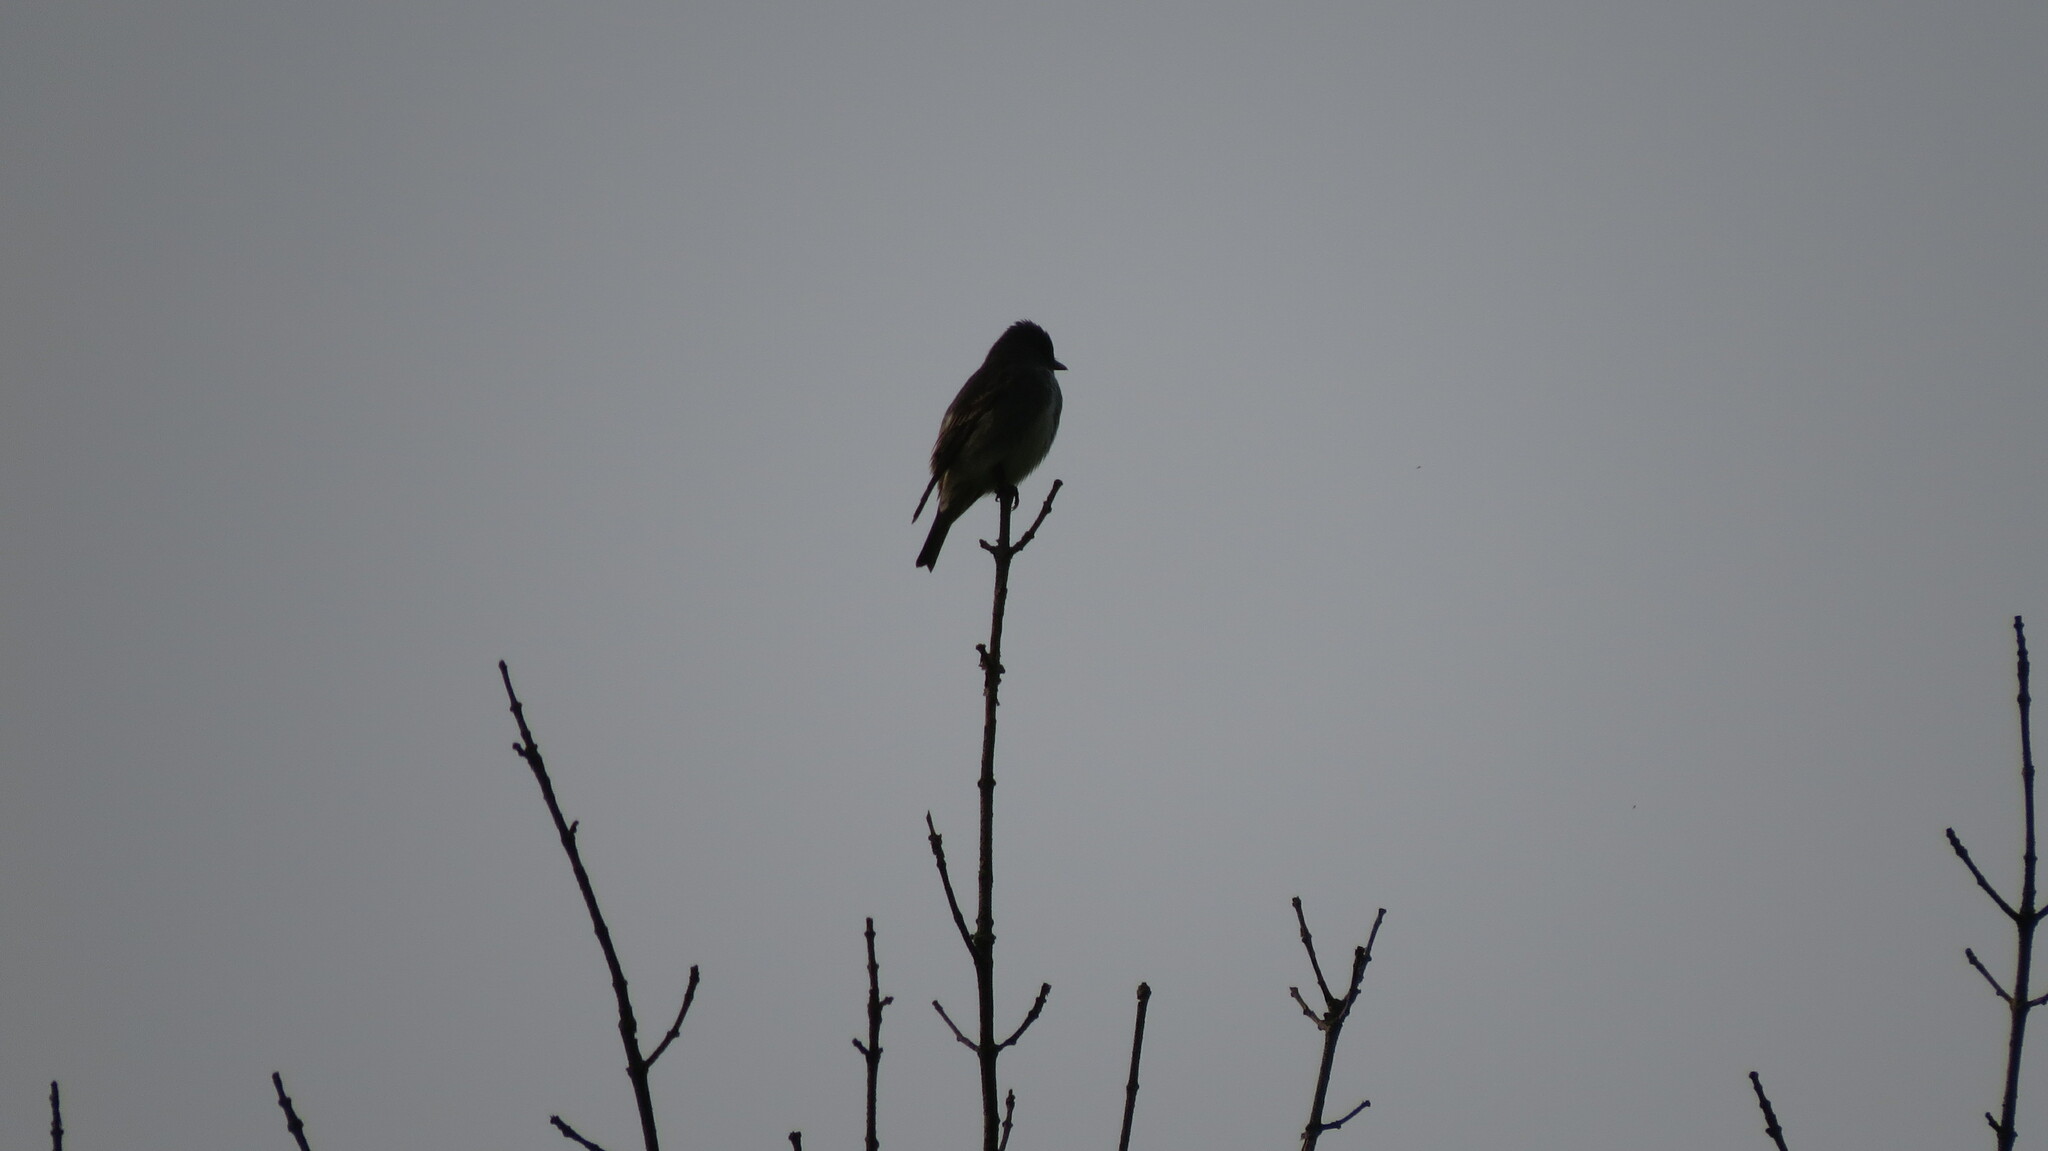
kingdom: Animalia
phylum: Chordata
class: Aves
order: Passeriformes
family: Tyrannidae
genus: Contopus
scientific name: Contopus cooperi
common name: Olive-sided flycatcher
